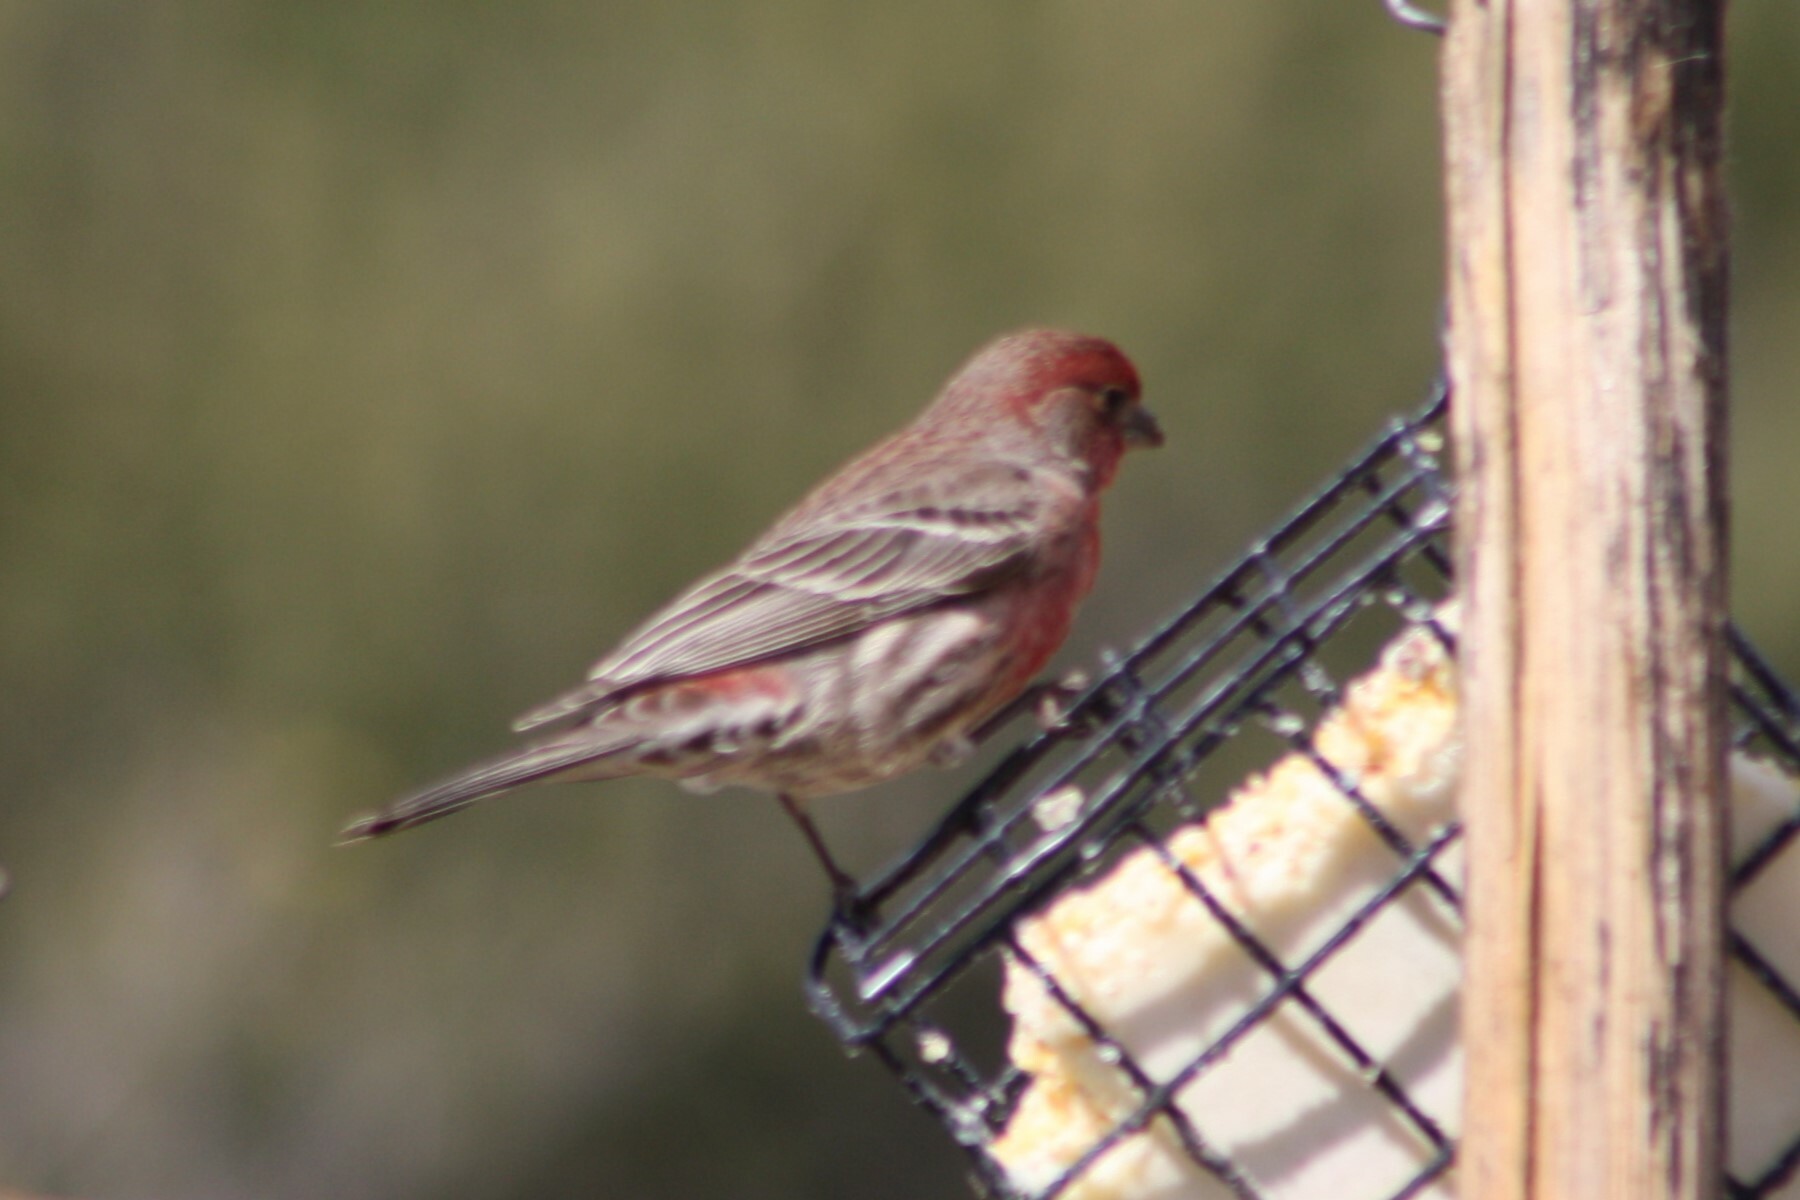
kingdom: Animalia
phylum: Chordata
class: Aves
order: Passeriformes
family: Fringillidae
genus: Haemorhous
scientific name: Haemorhous mexicanus
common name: House finch
